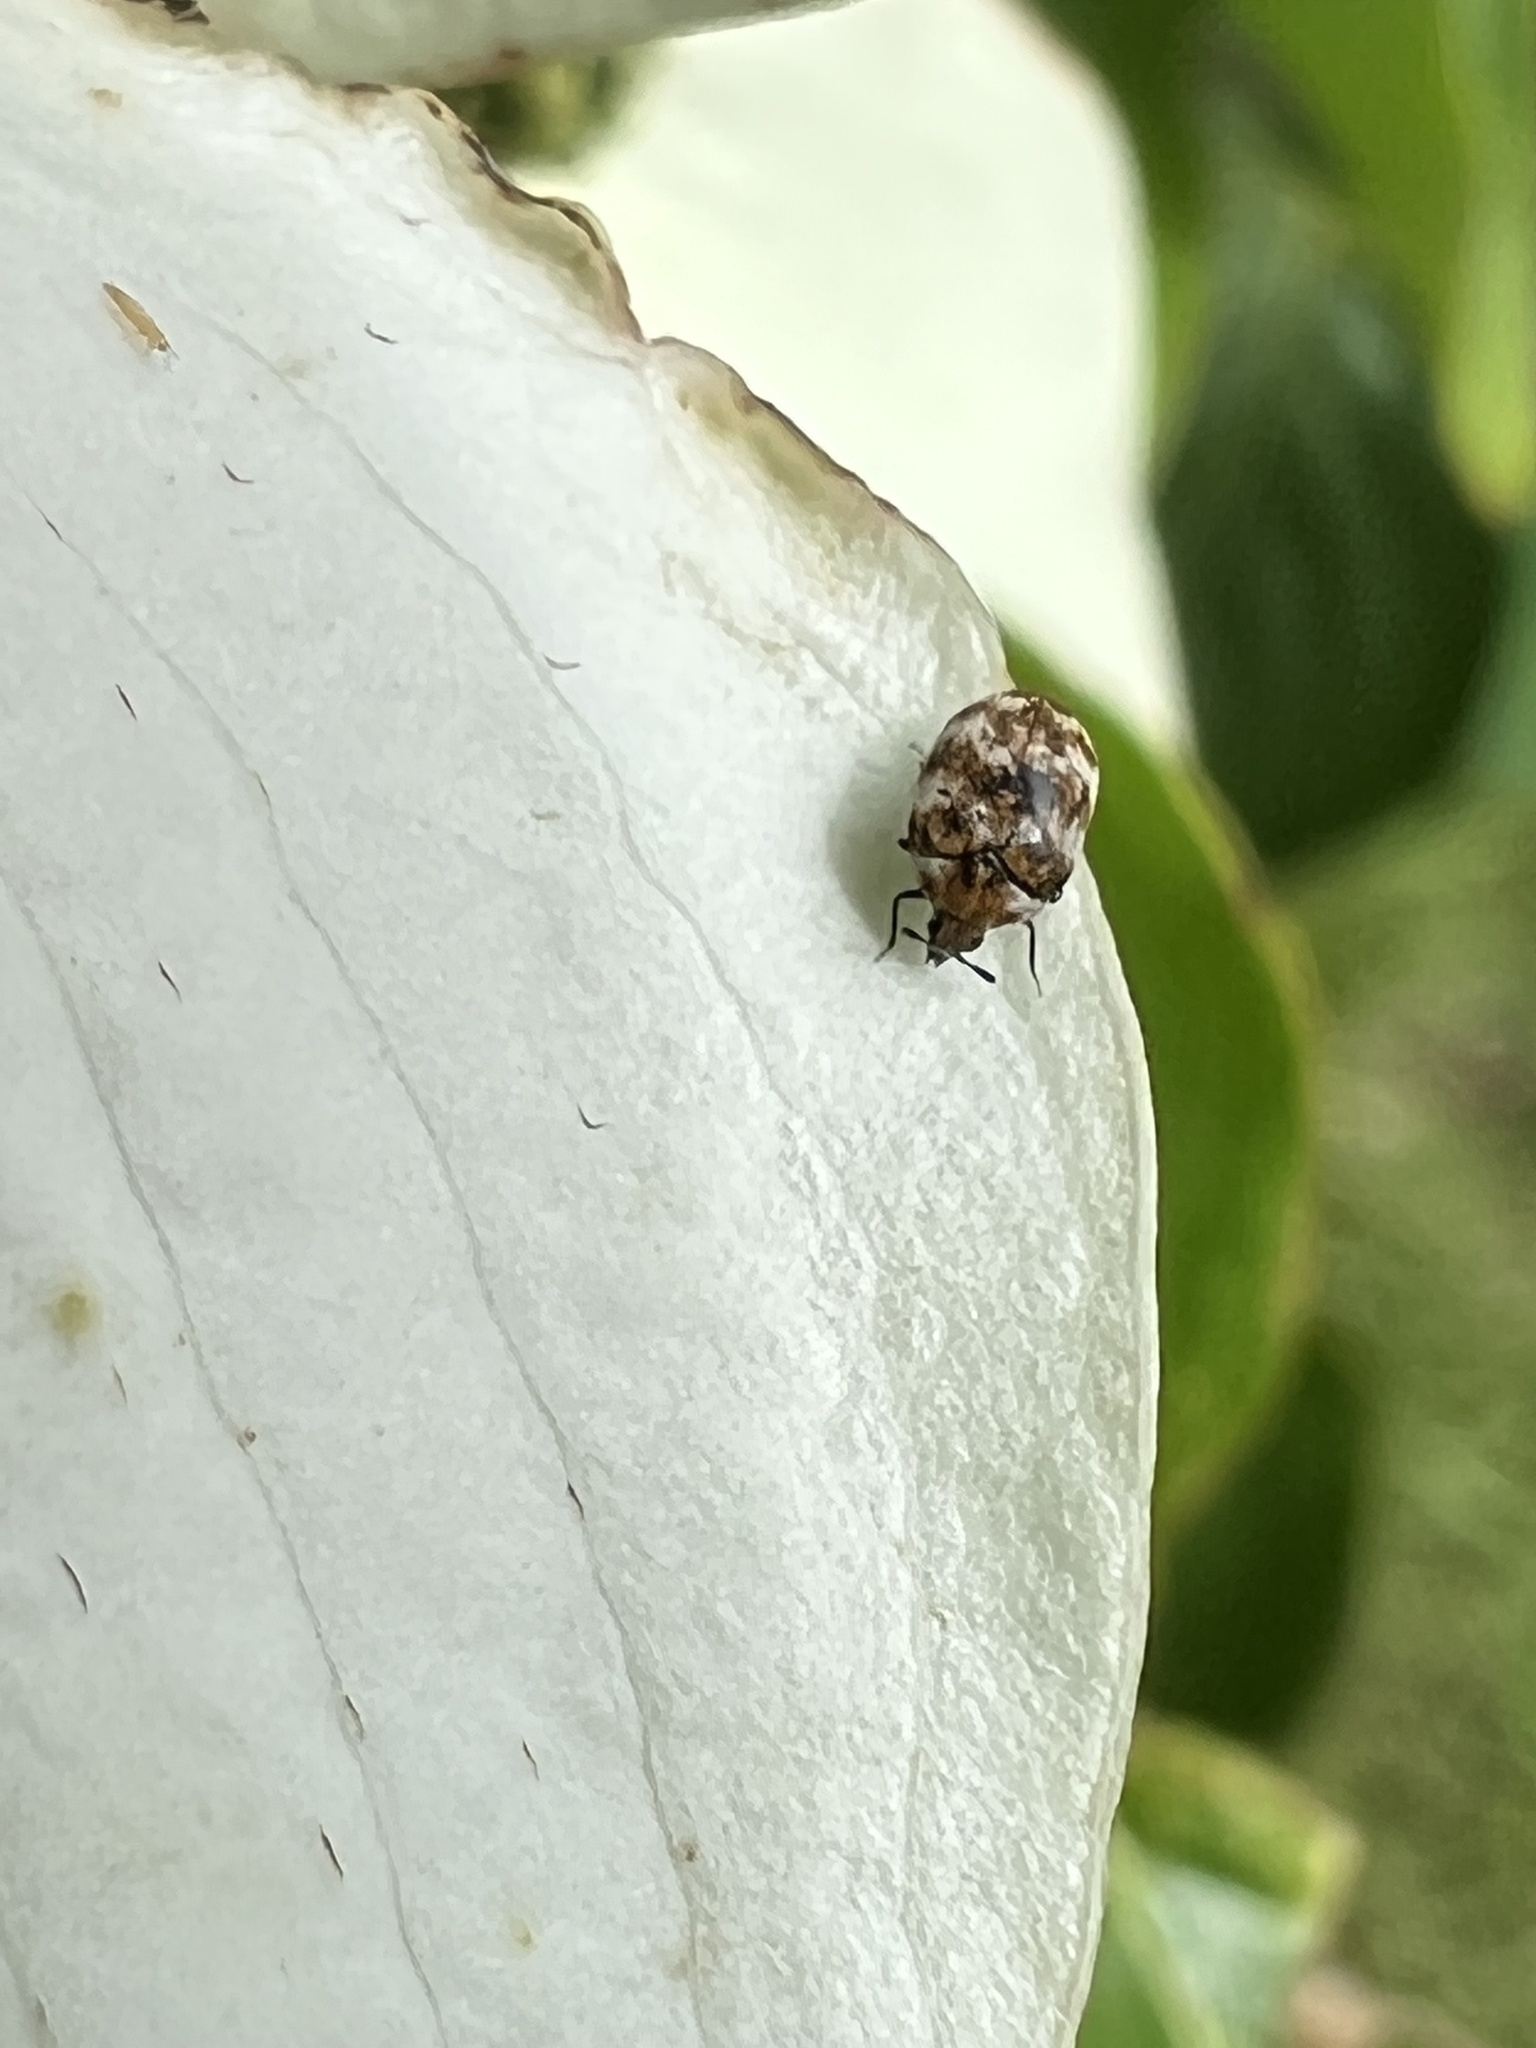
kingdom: Animalia
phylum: Arthropoda
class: Insecta
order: Coleoptera
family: Dermestidae
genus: Anthrenus
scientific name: Anthrenus verbasci
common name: Varied carpet beetle
